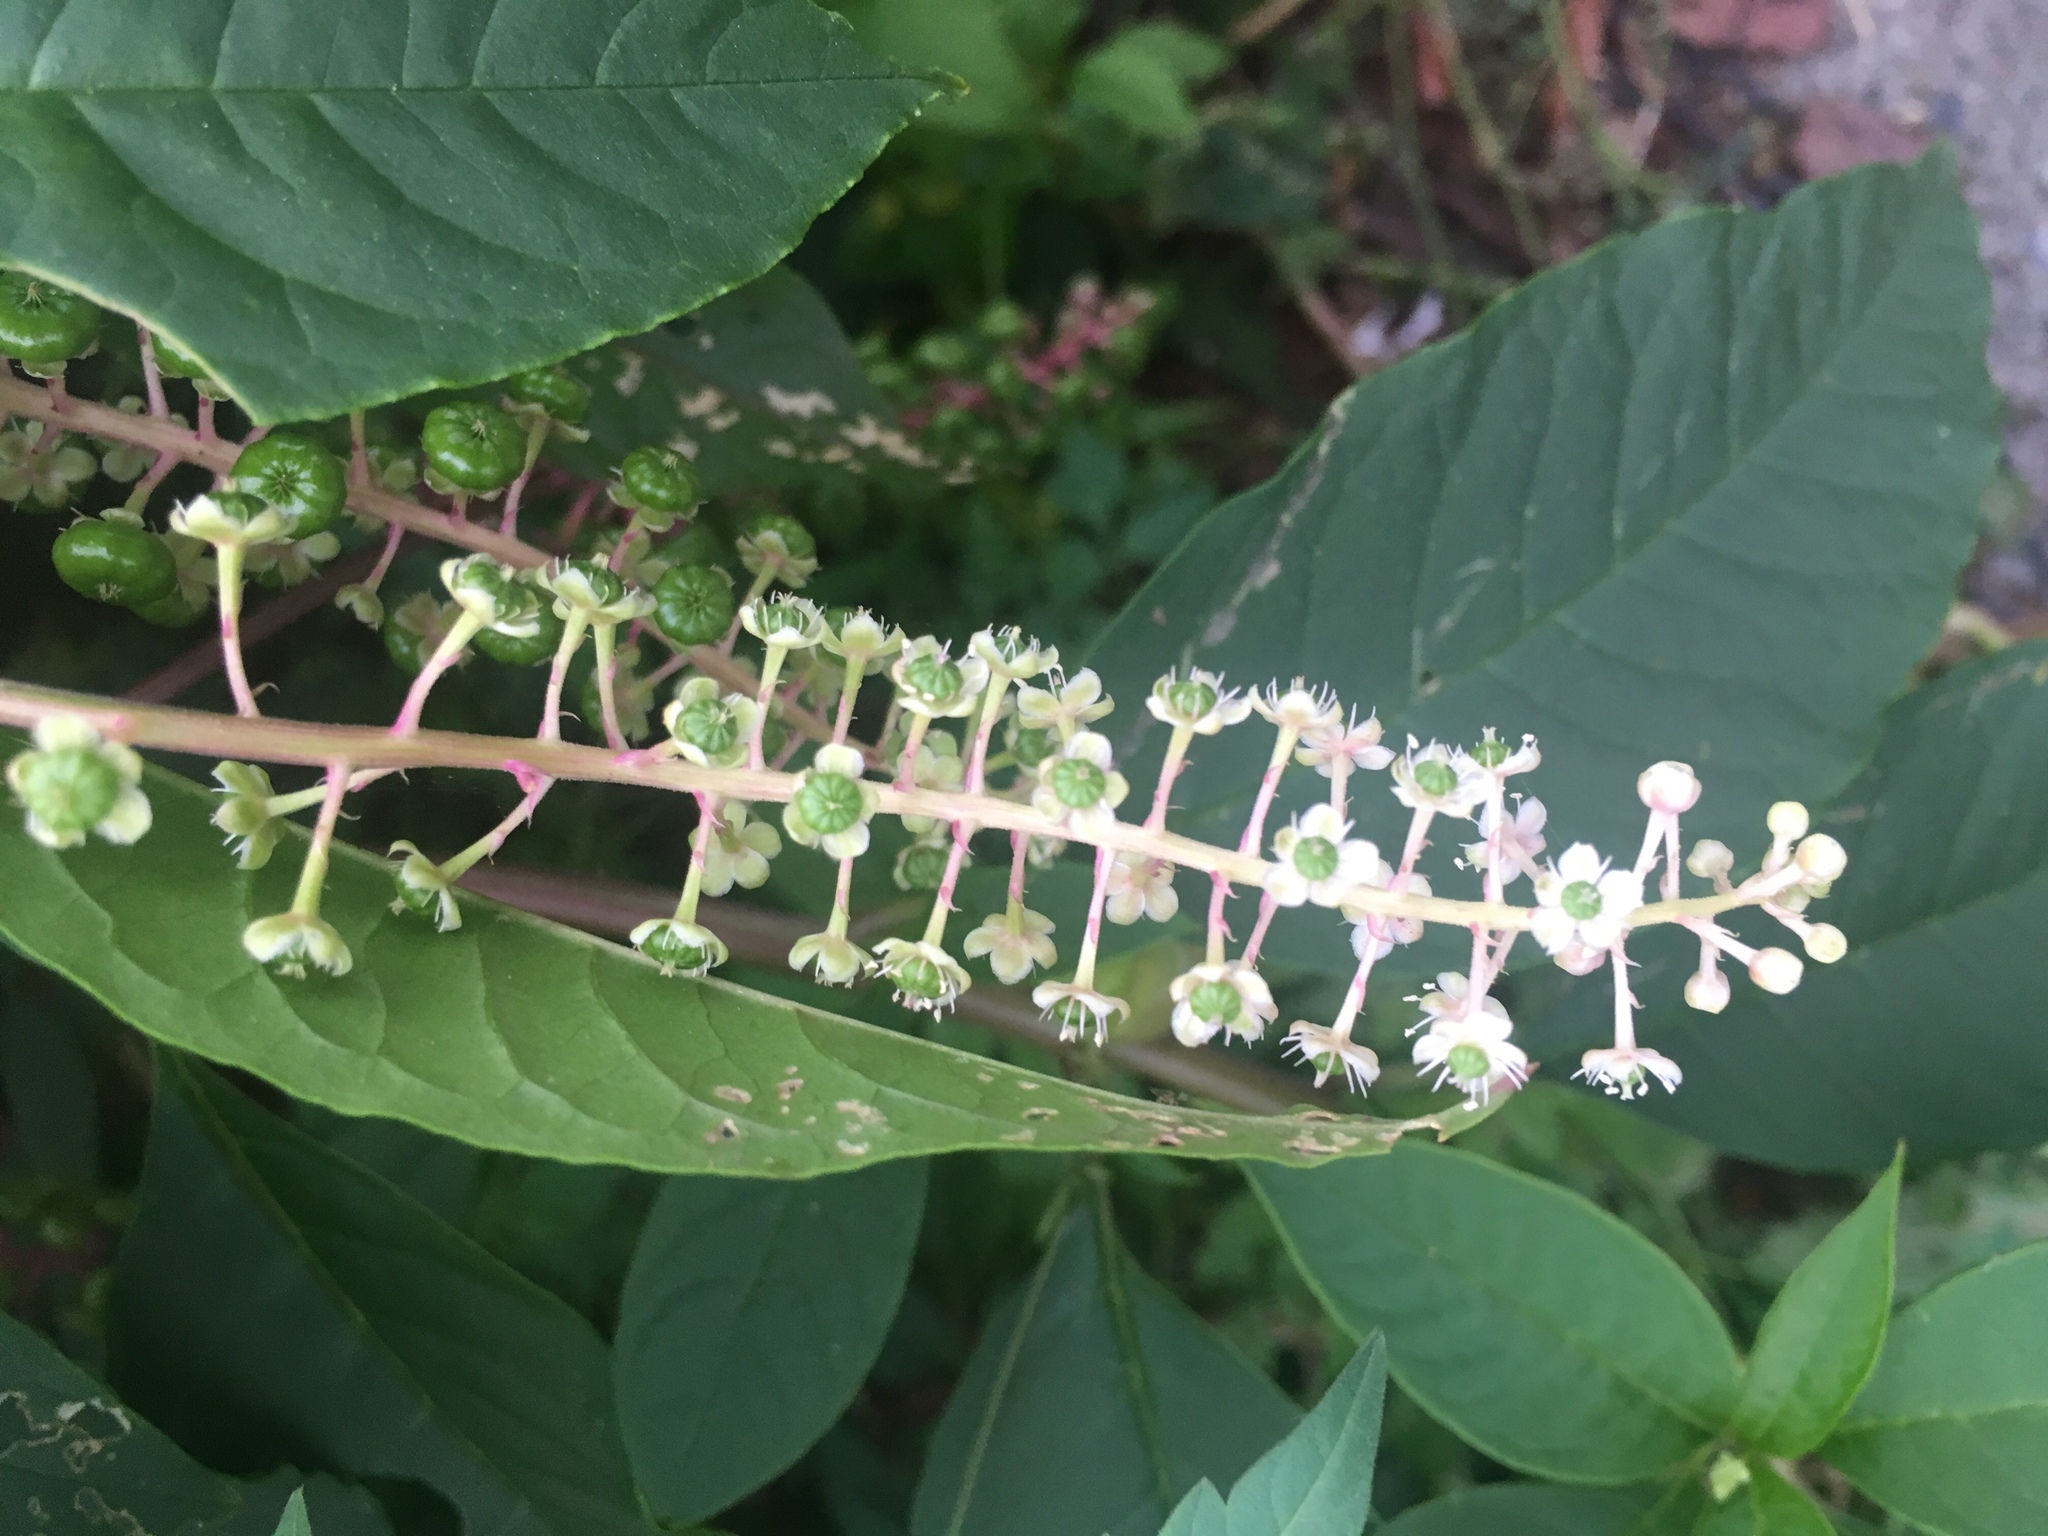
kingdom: Plantae
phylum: Tracheophyta
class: Magnoliopsida
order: Caryophyllales
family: Phytolaccaceae
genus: Phytolacca
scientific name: Phytolacca americana
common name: American pokeweed
